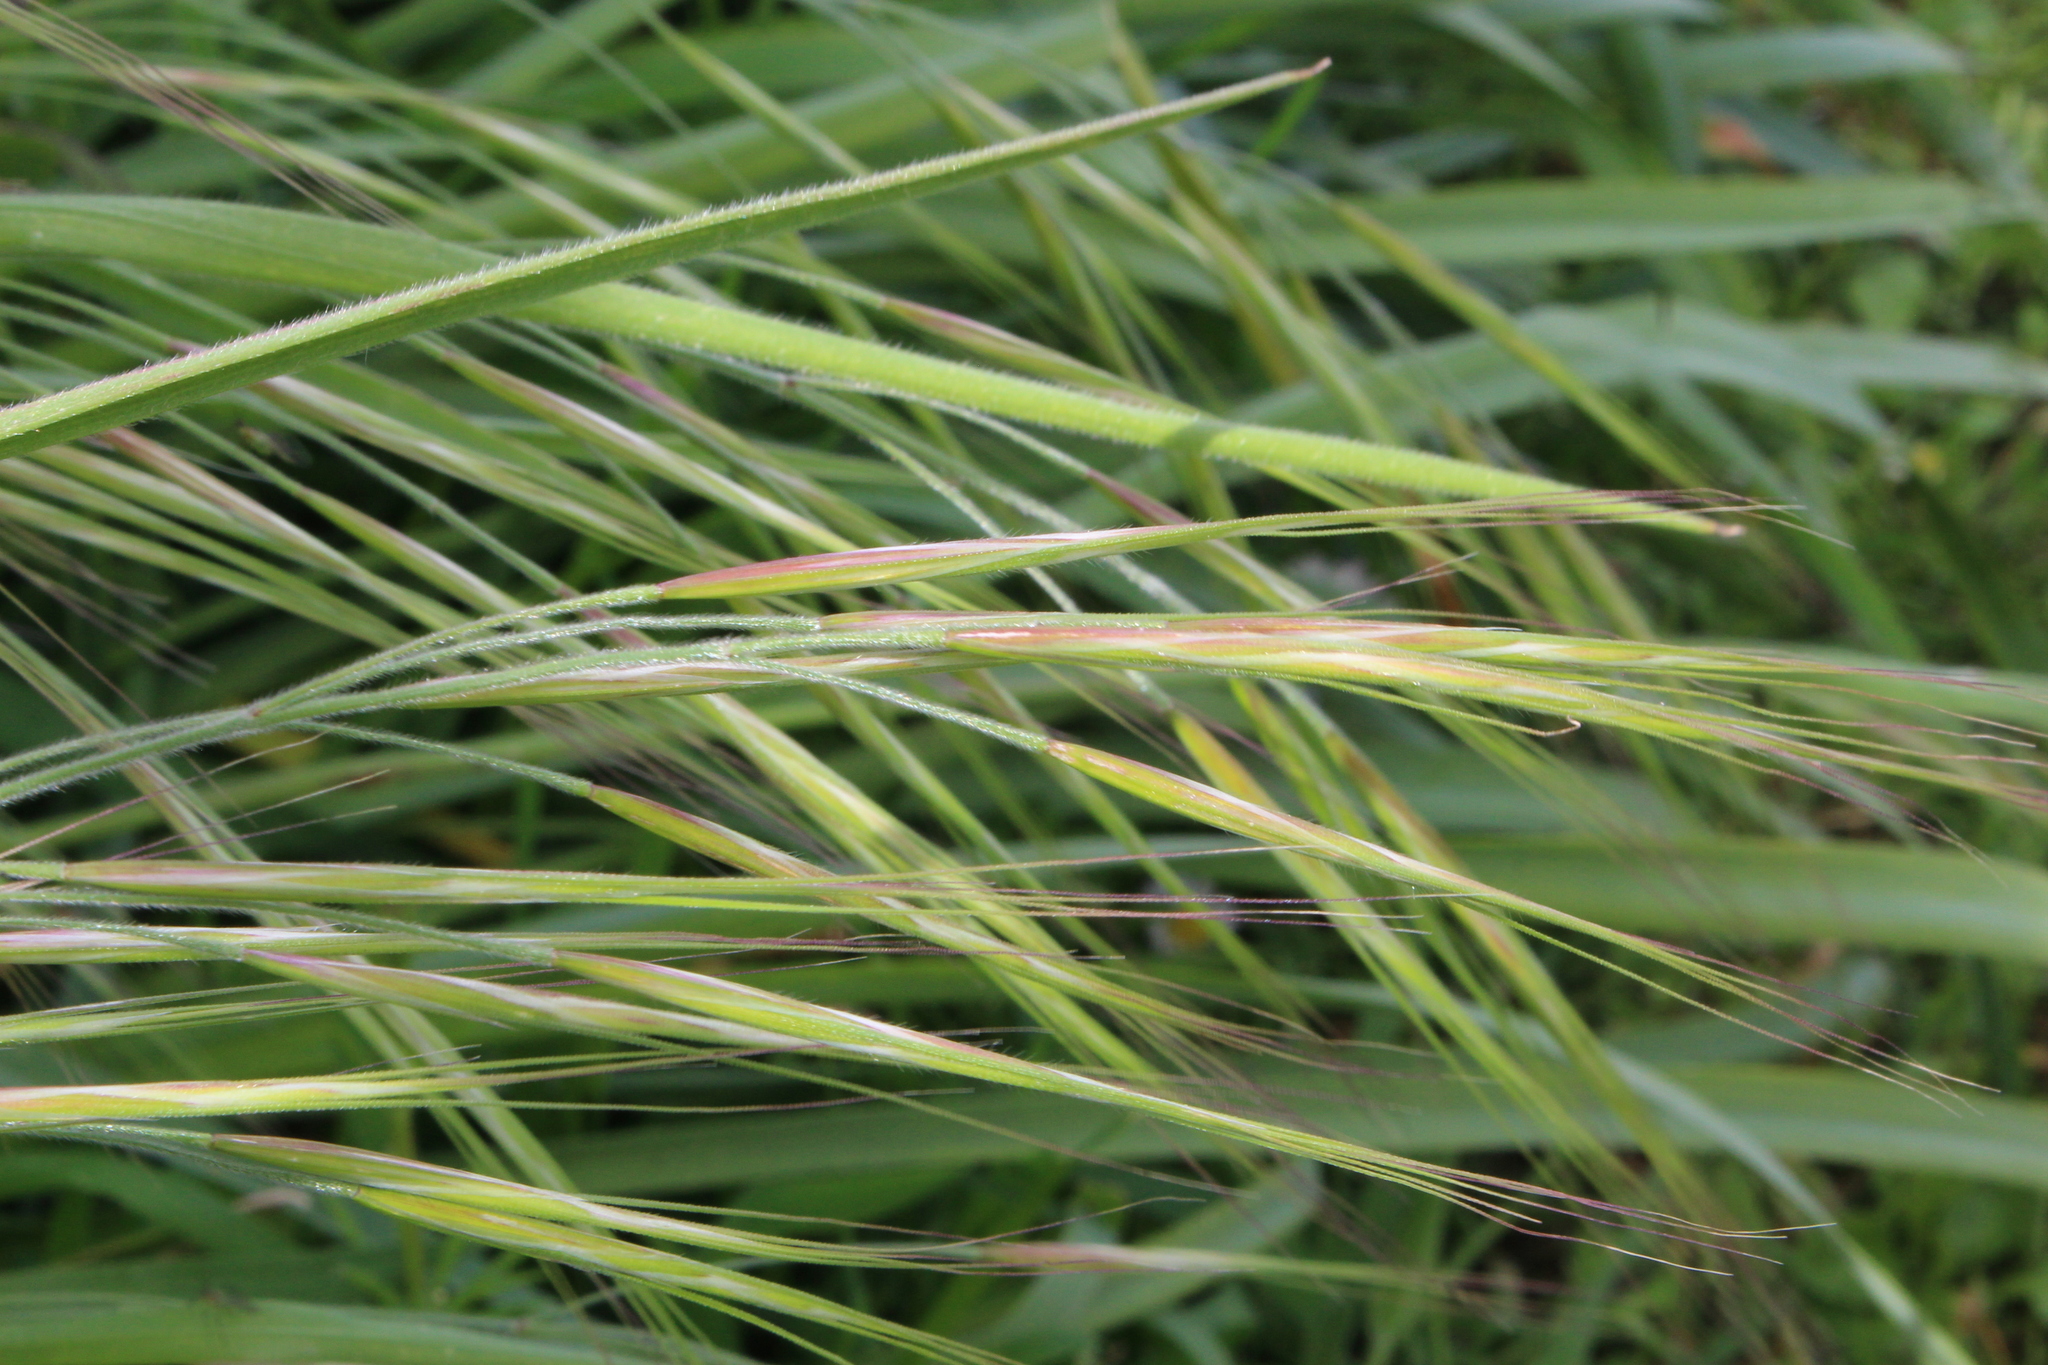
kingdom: Plantae
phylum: Tracheophyta
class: Liliopsida
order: Poales
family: Poaceae
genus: Bromus
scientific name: Bromus diandrus
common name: Ripgut brome
